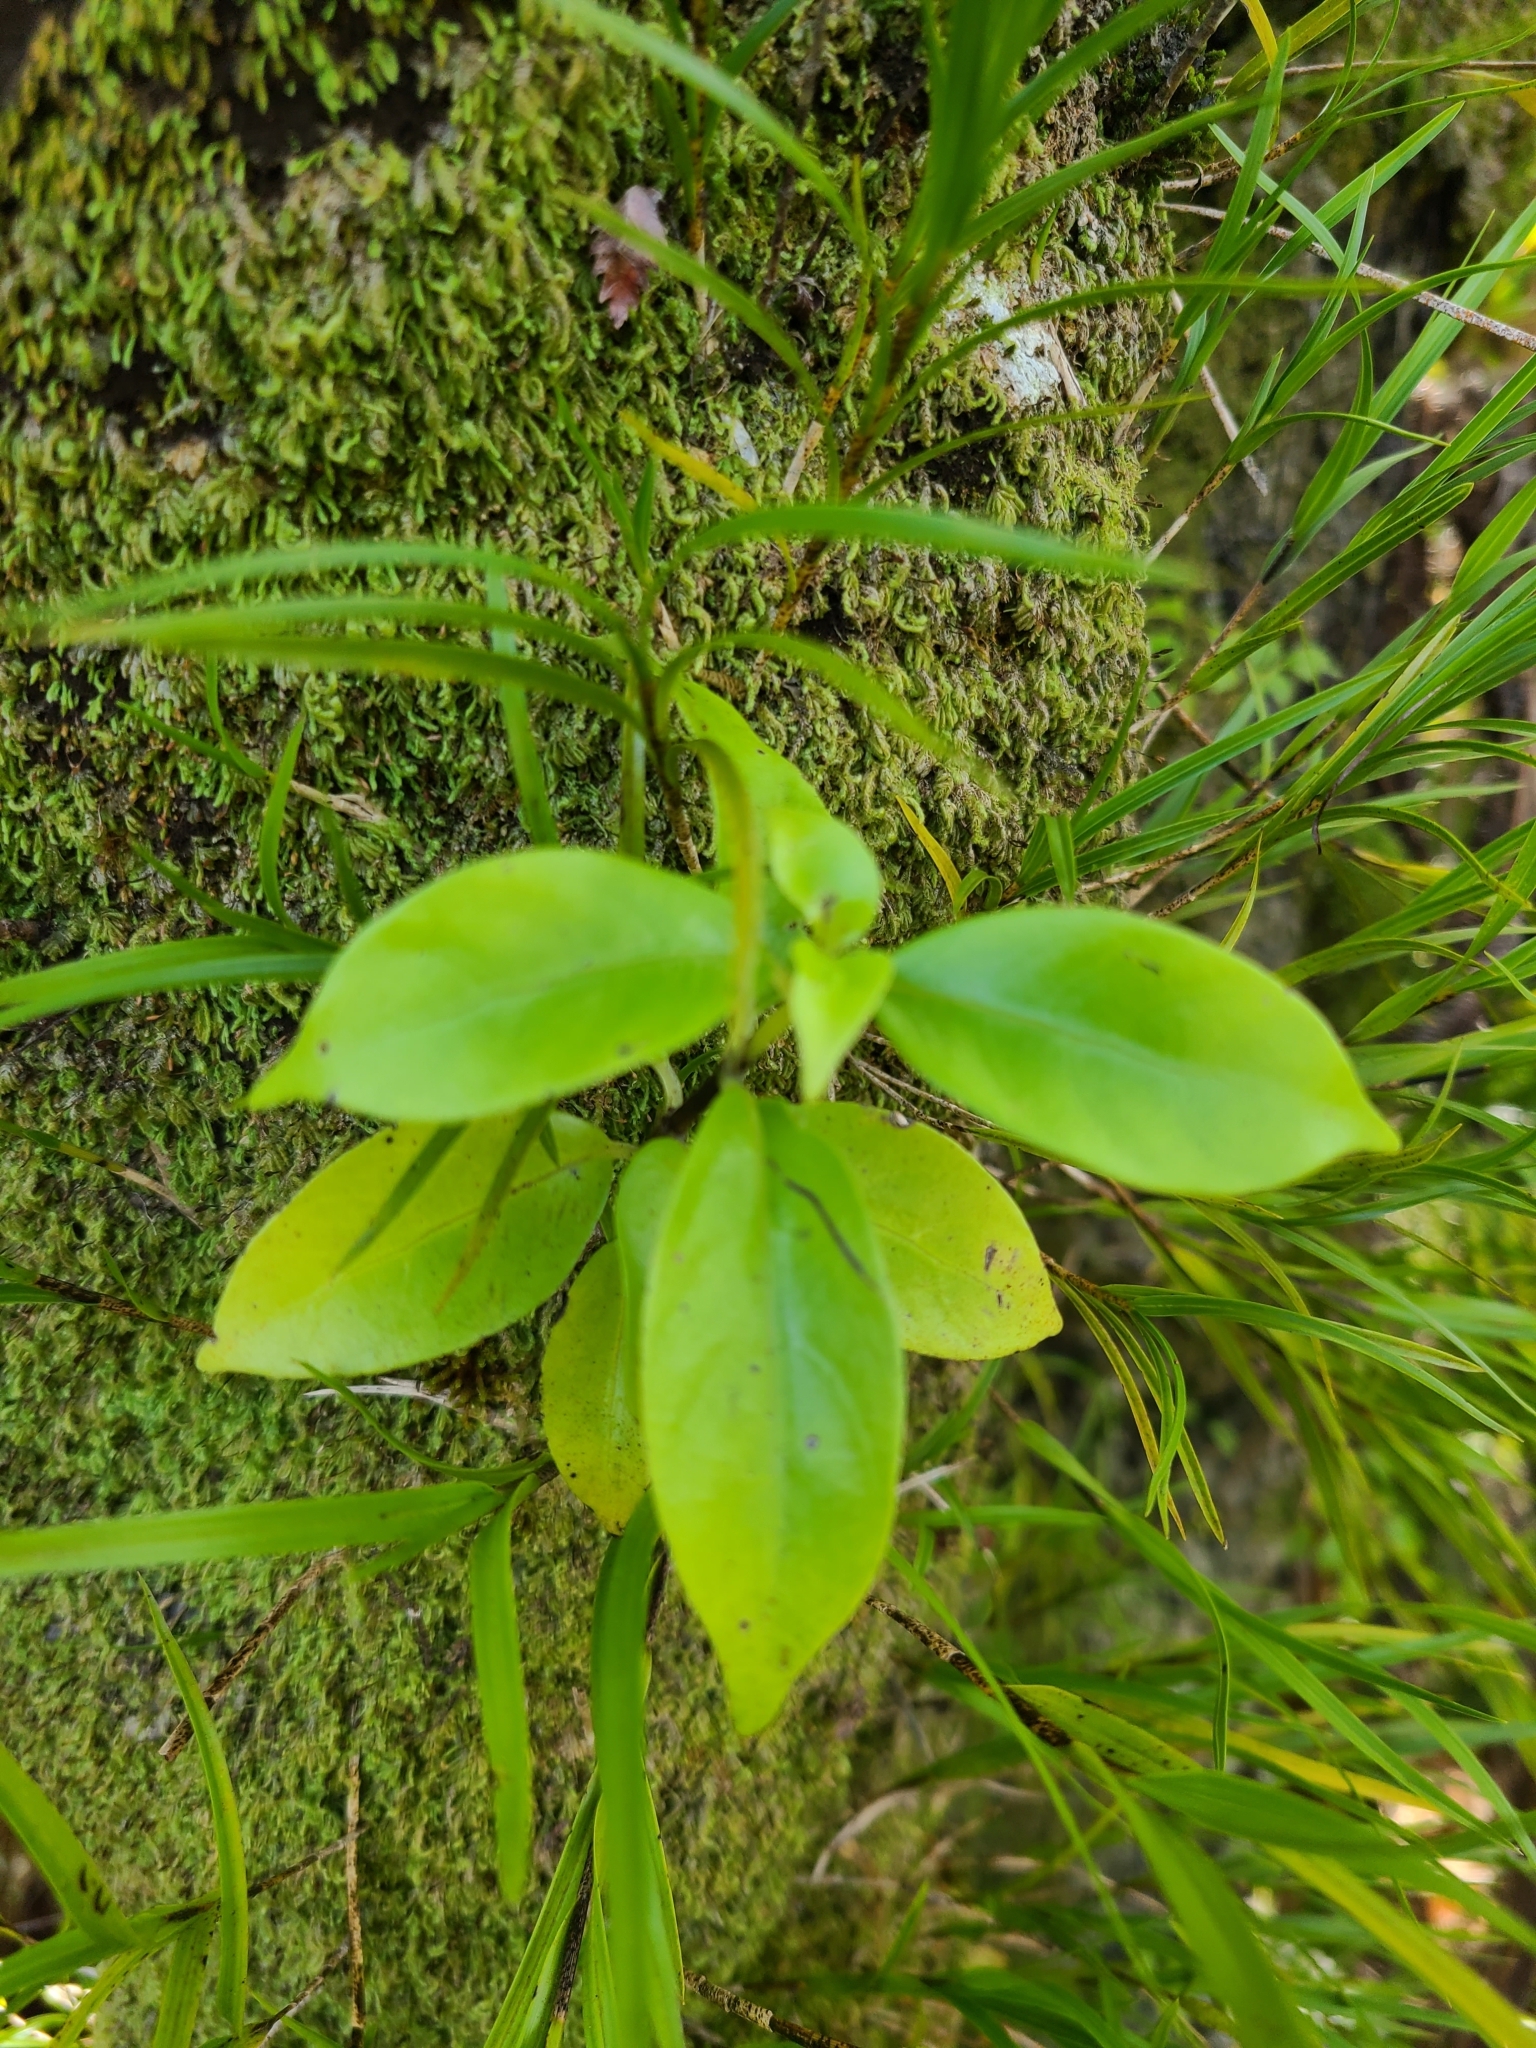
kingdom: Plantae
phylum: Tracheophyta
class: Magnoliopsida
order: Gentianales
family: Loganiaceae
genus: Geniostoma
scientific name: Geniostoma ligustrifolium
